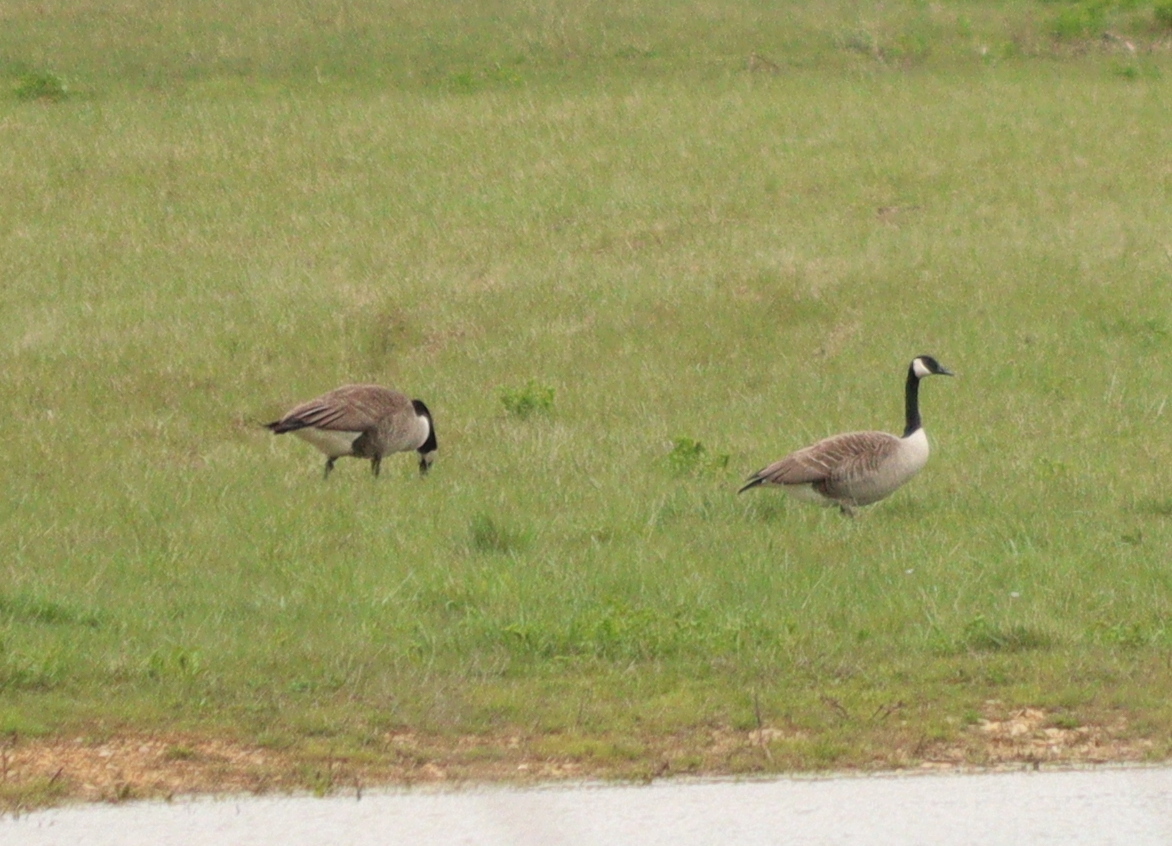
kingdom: Animalia
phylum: Chordata
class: Aves
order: Anseriformes
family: Anatidae
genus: Branta
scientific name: Branta canadensis
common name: Canada goose
